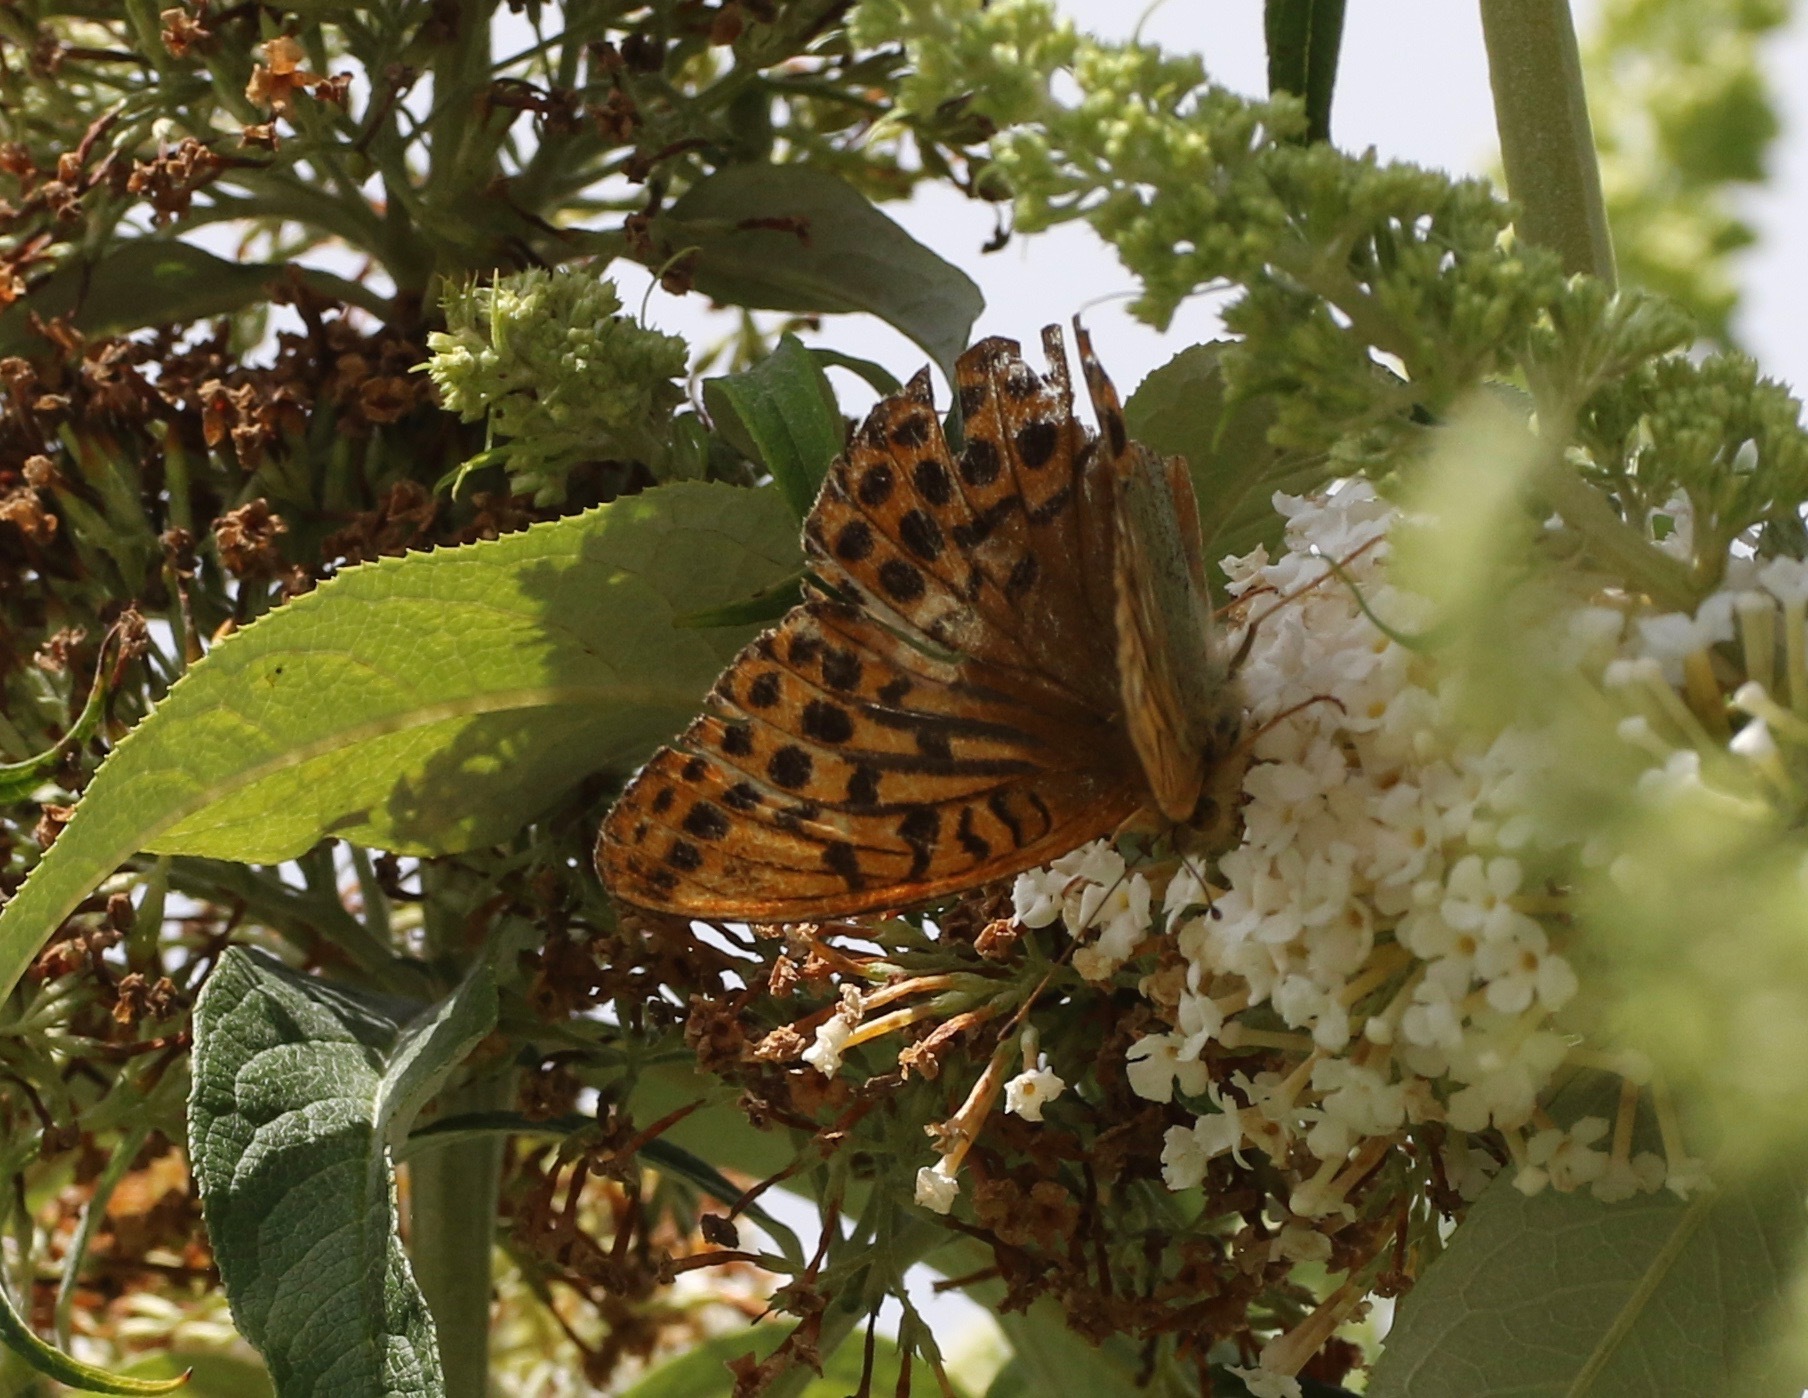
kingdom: Animalia
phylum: Arthropoda
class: Insecta
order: Lepidoptera
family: Nymphalidae
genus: Argynnis
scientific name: Argynnis paphia
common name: Silver-washed fritillary
